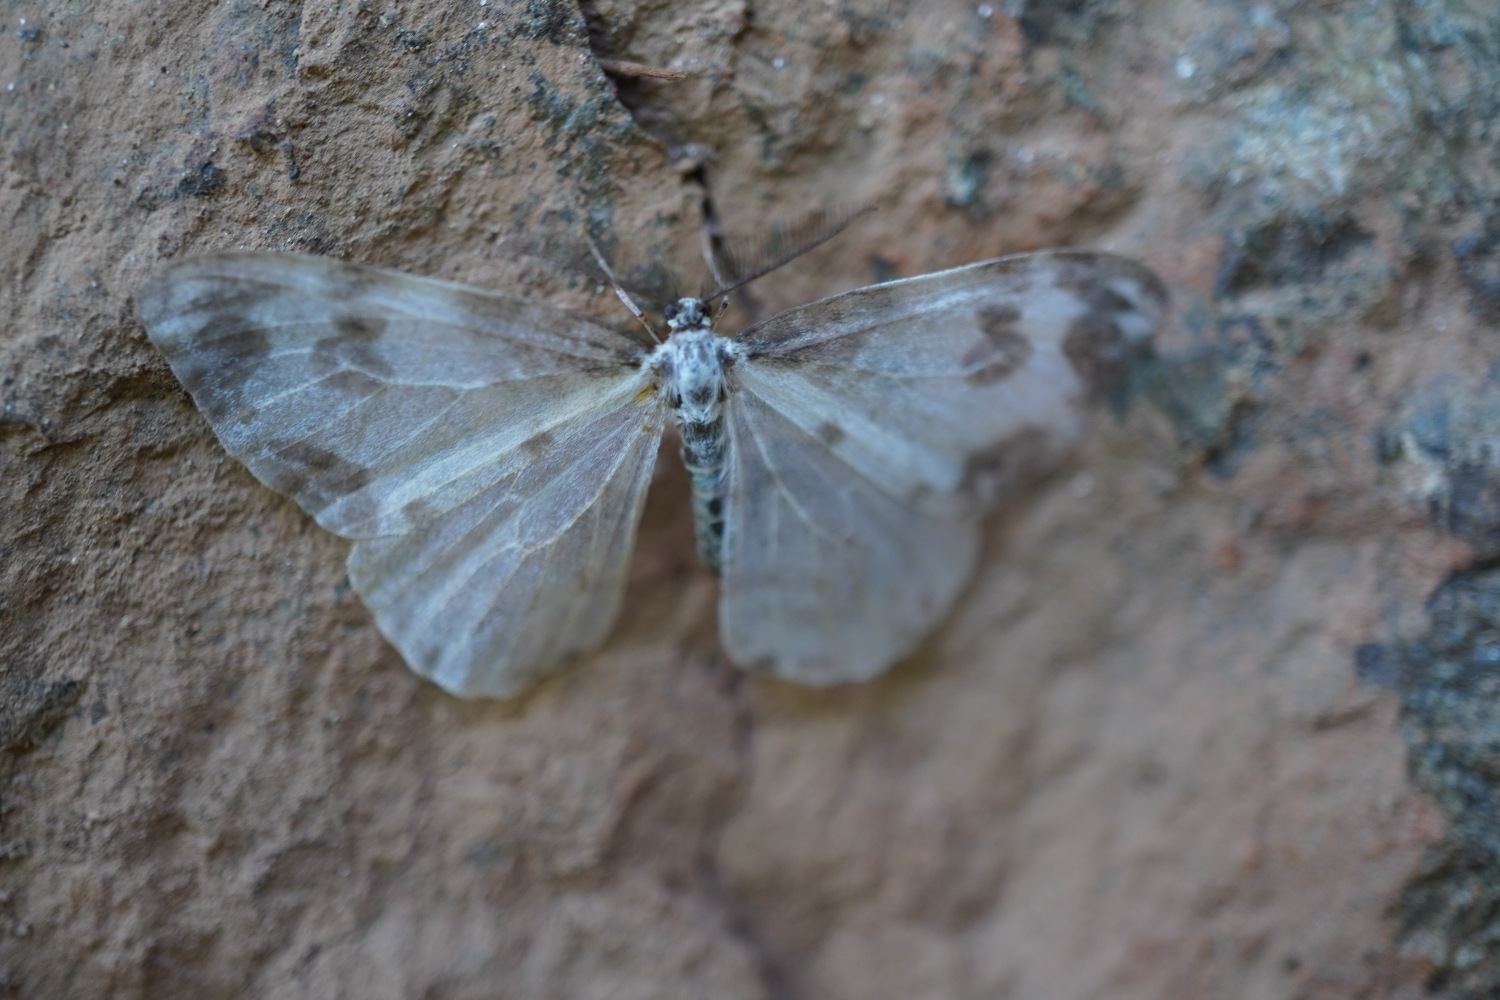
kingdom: Animalia
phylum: Arthropoda
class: Insecta
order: Lepidoptera
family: Drepanidae
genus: Deroca
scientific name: Deroca inconclusa
